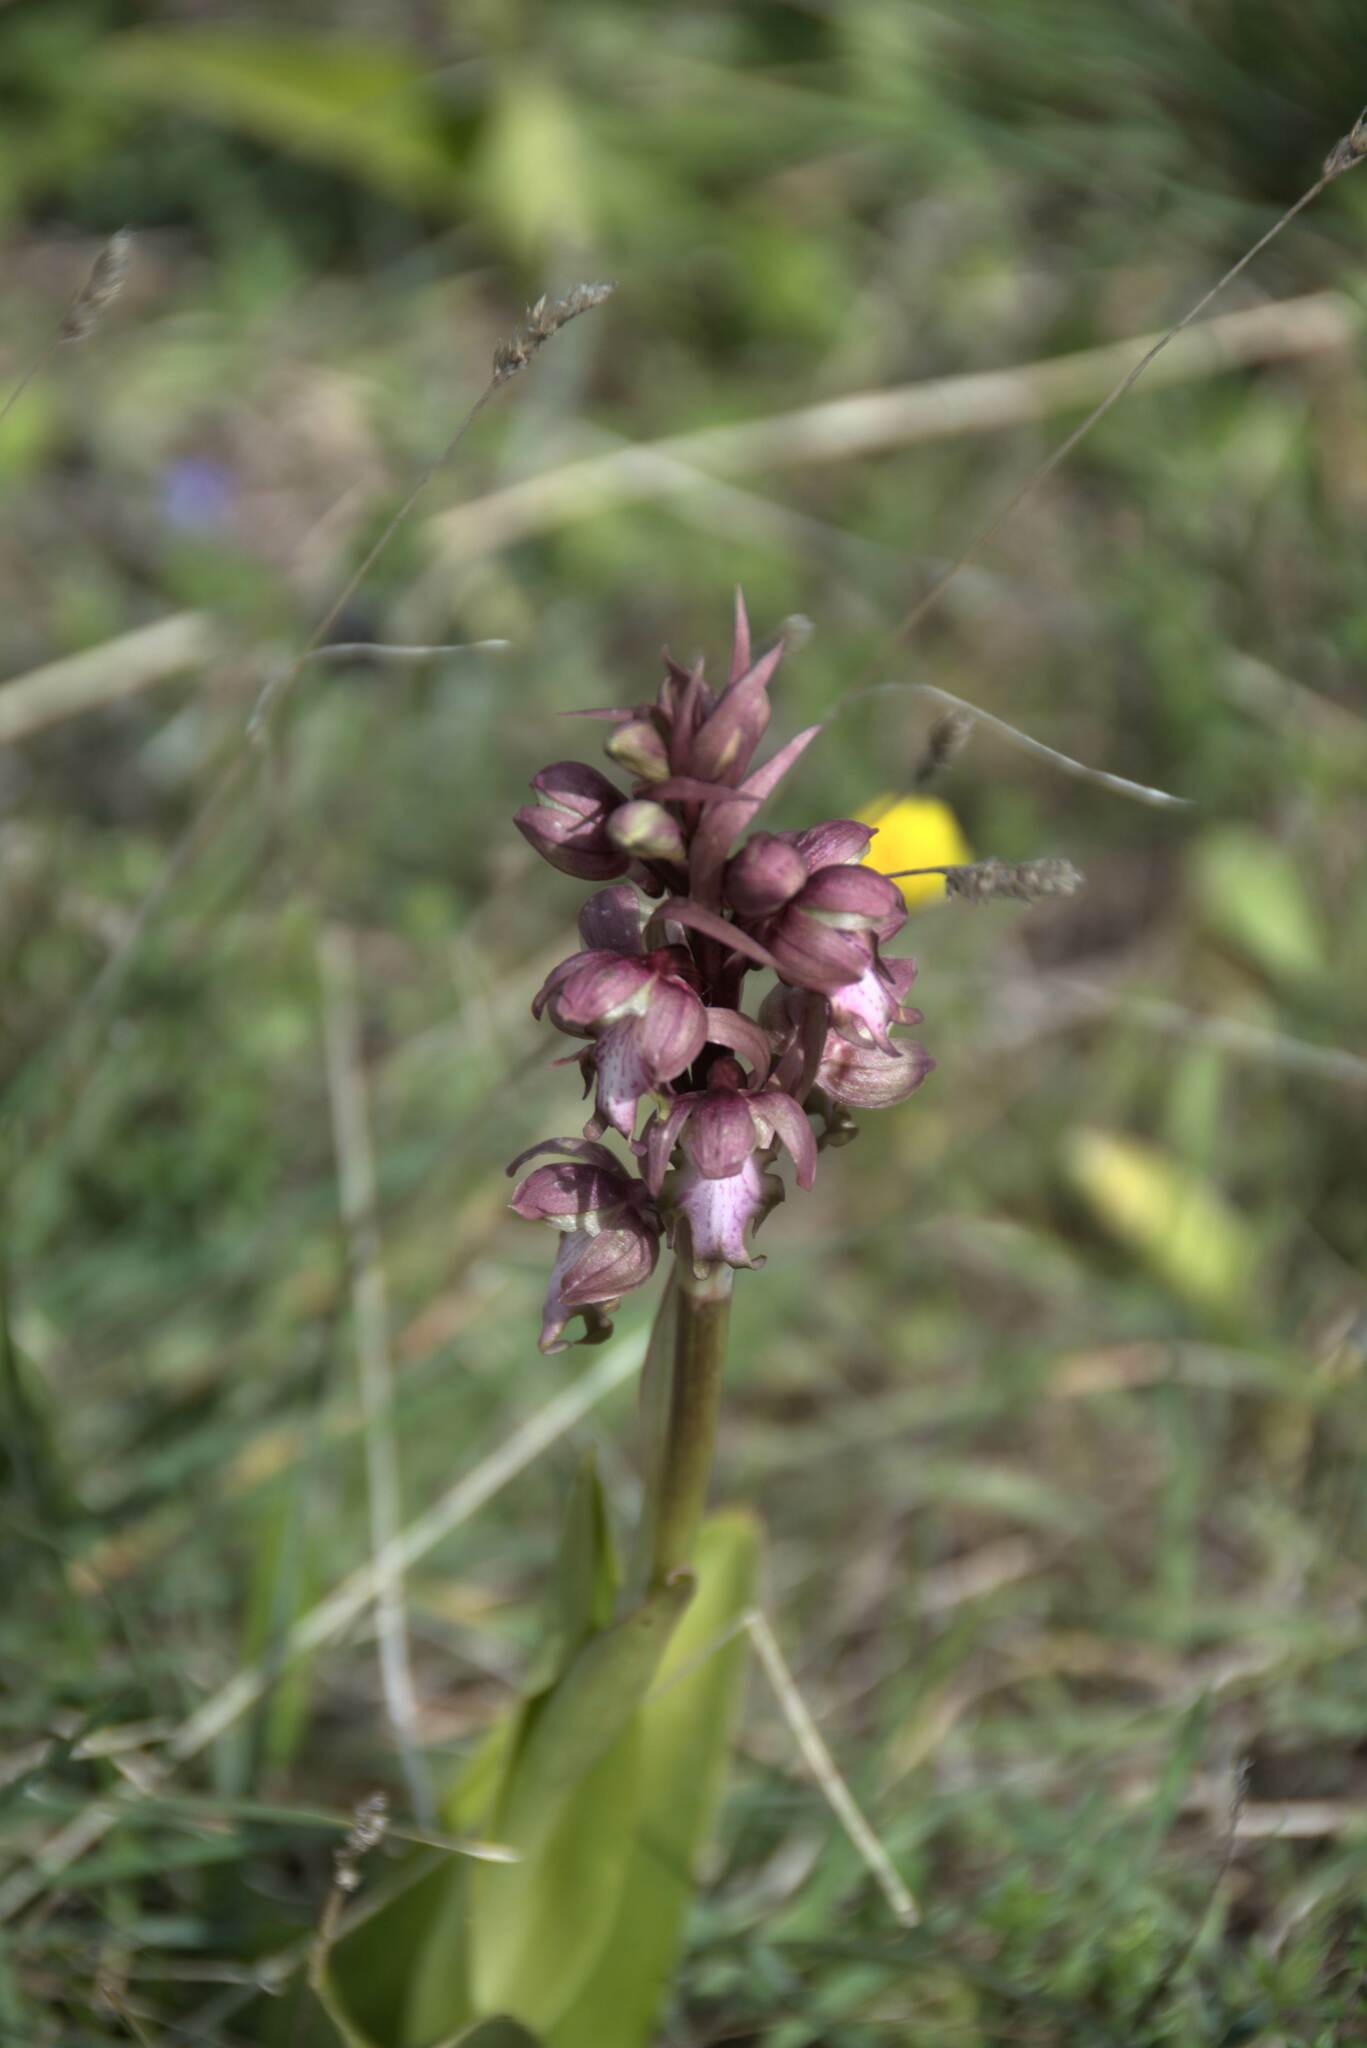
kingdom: Plantae
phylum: Tracheophyta
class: Liliopsida
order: Asparagales
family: Orchidaceae
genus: Himantoglossum
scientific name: Himantoglossum robertianum
